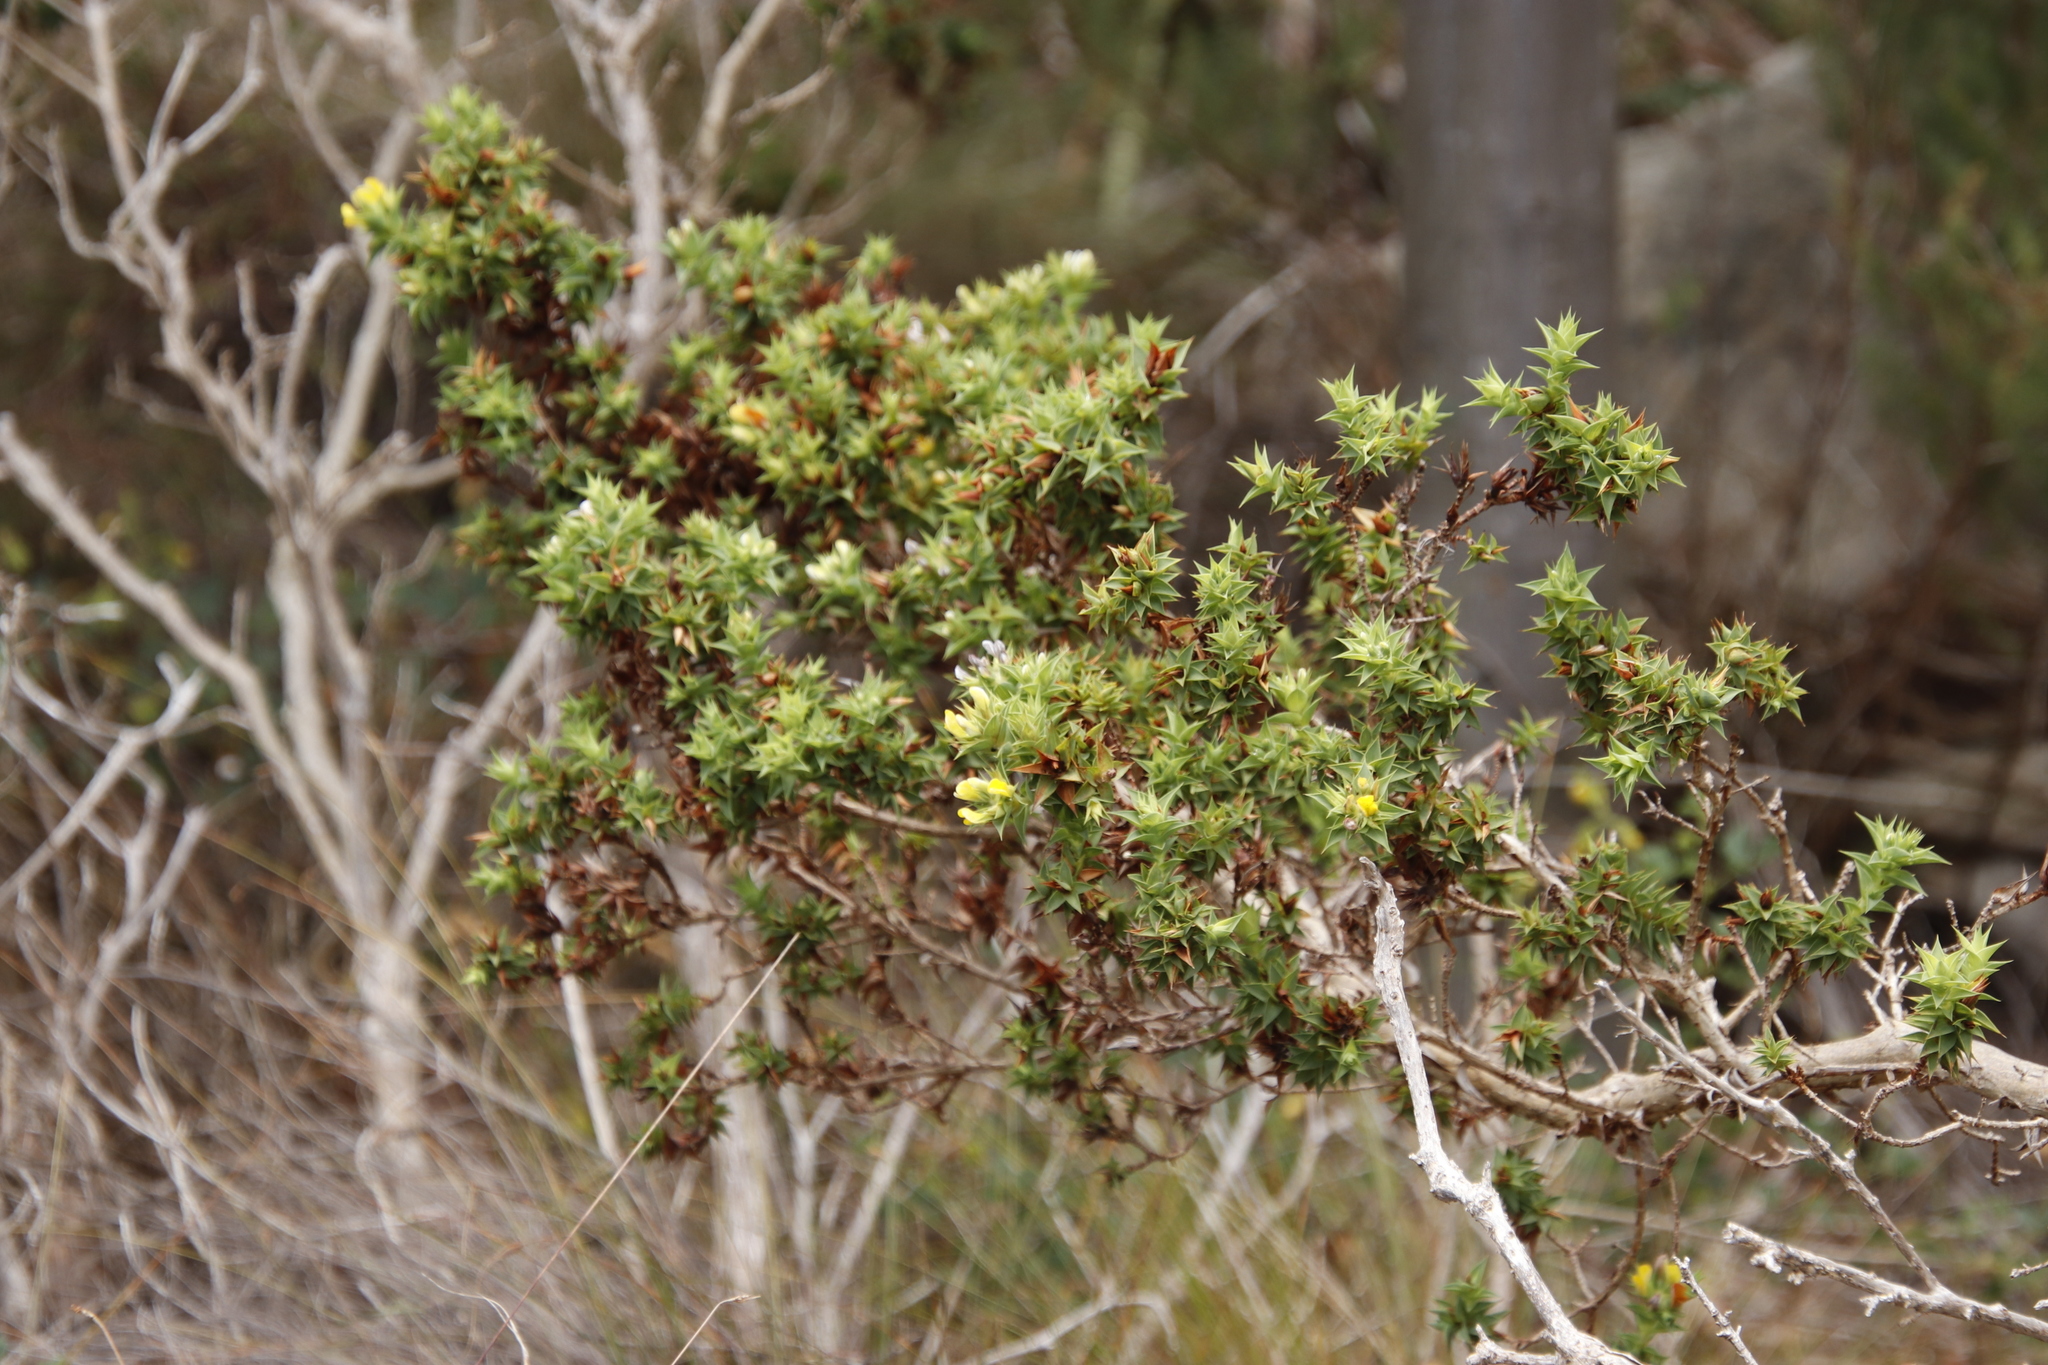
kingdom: Plantae
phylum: Tracheophyta
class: Magnoliopsida
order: Fabales
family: Fabaceae
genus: Aspalathus
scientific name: Aspalathus cordata
